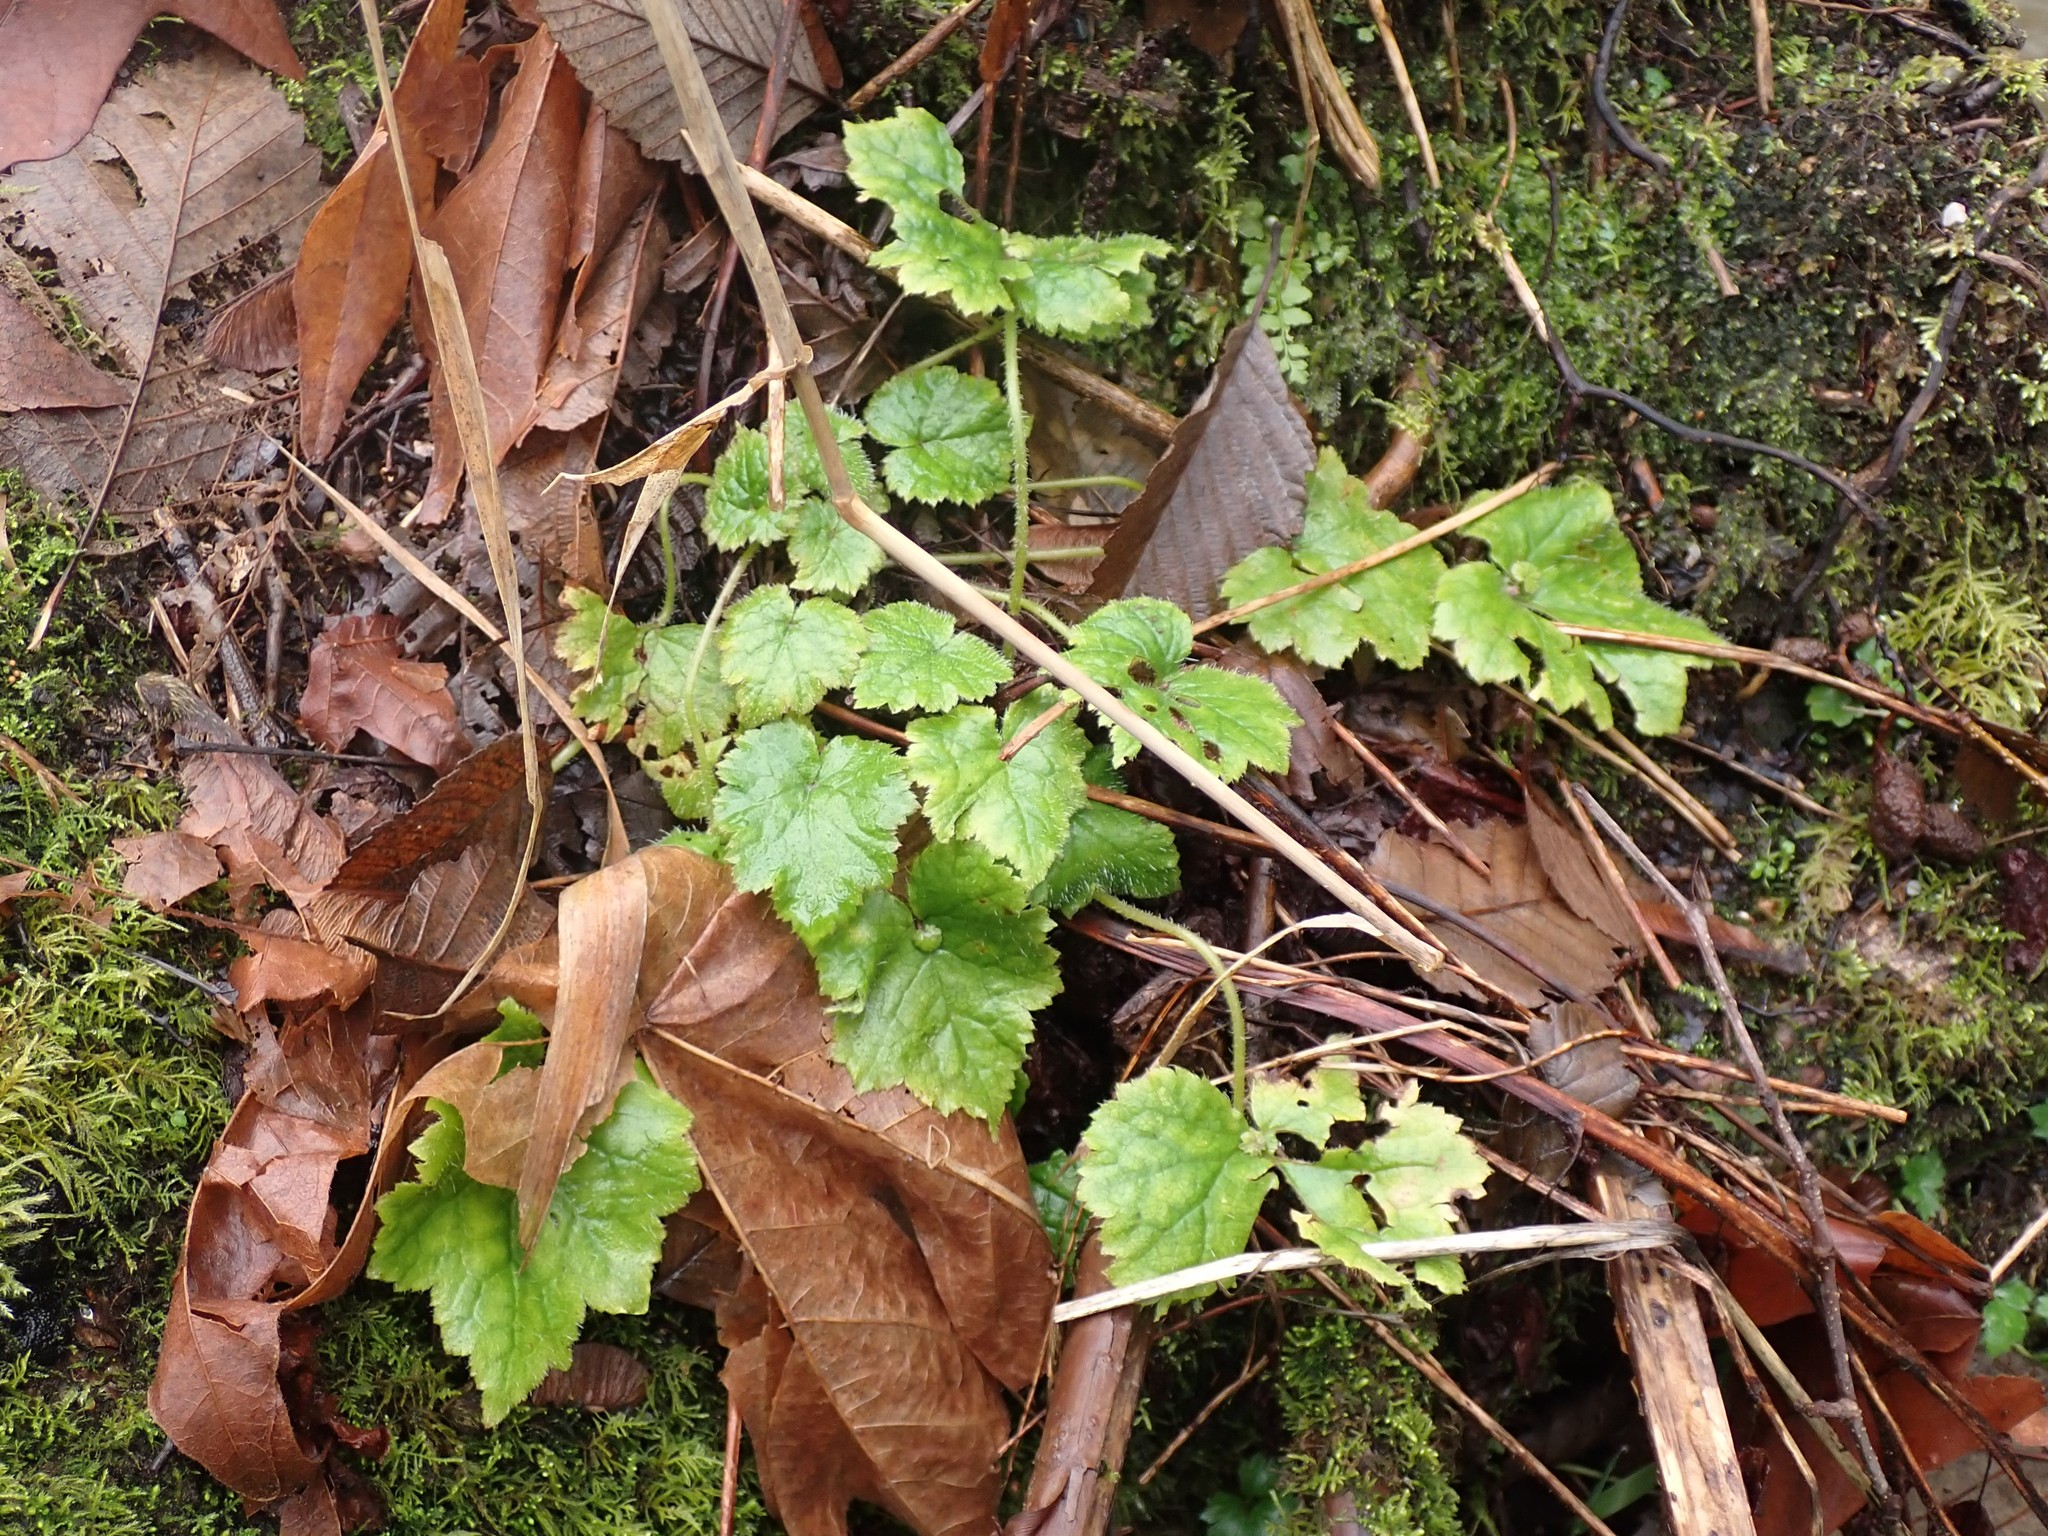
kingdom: Plantae
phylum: Tracheophyta
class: Magnoliopsida
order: Saxifragales
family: Saxifragaceae
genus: Tolmiea
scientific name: Tolmiea menziesii
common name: Pick-a-back-plant
